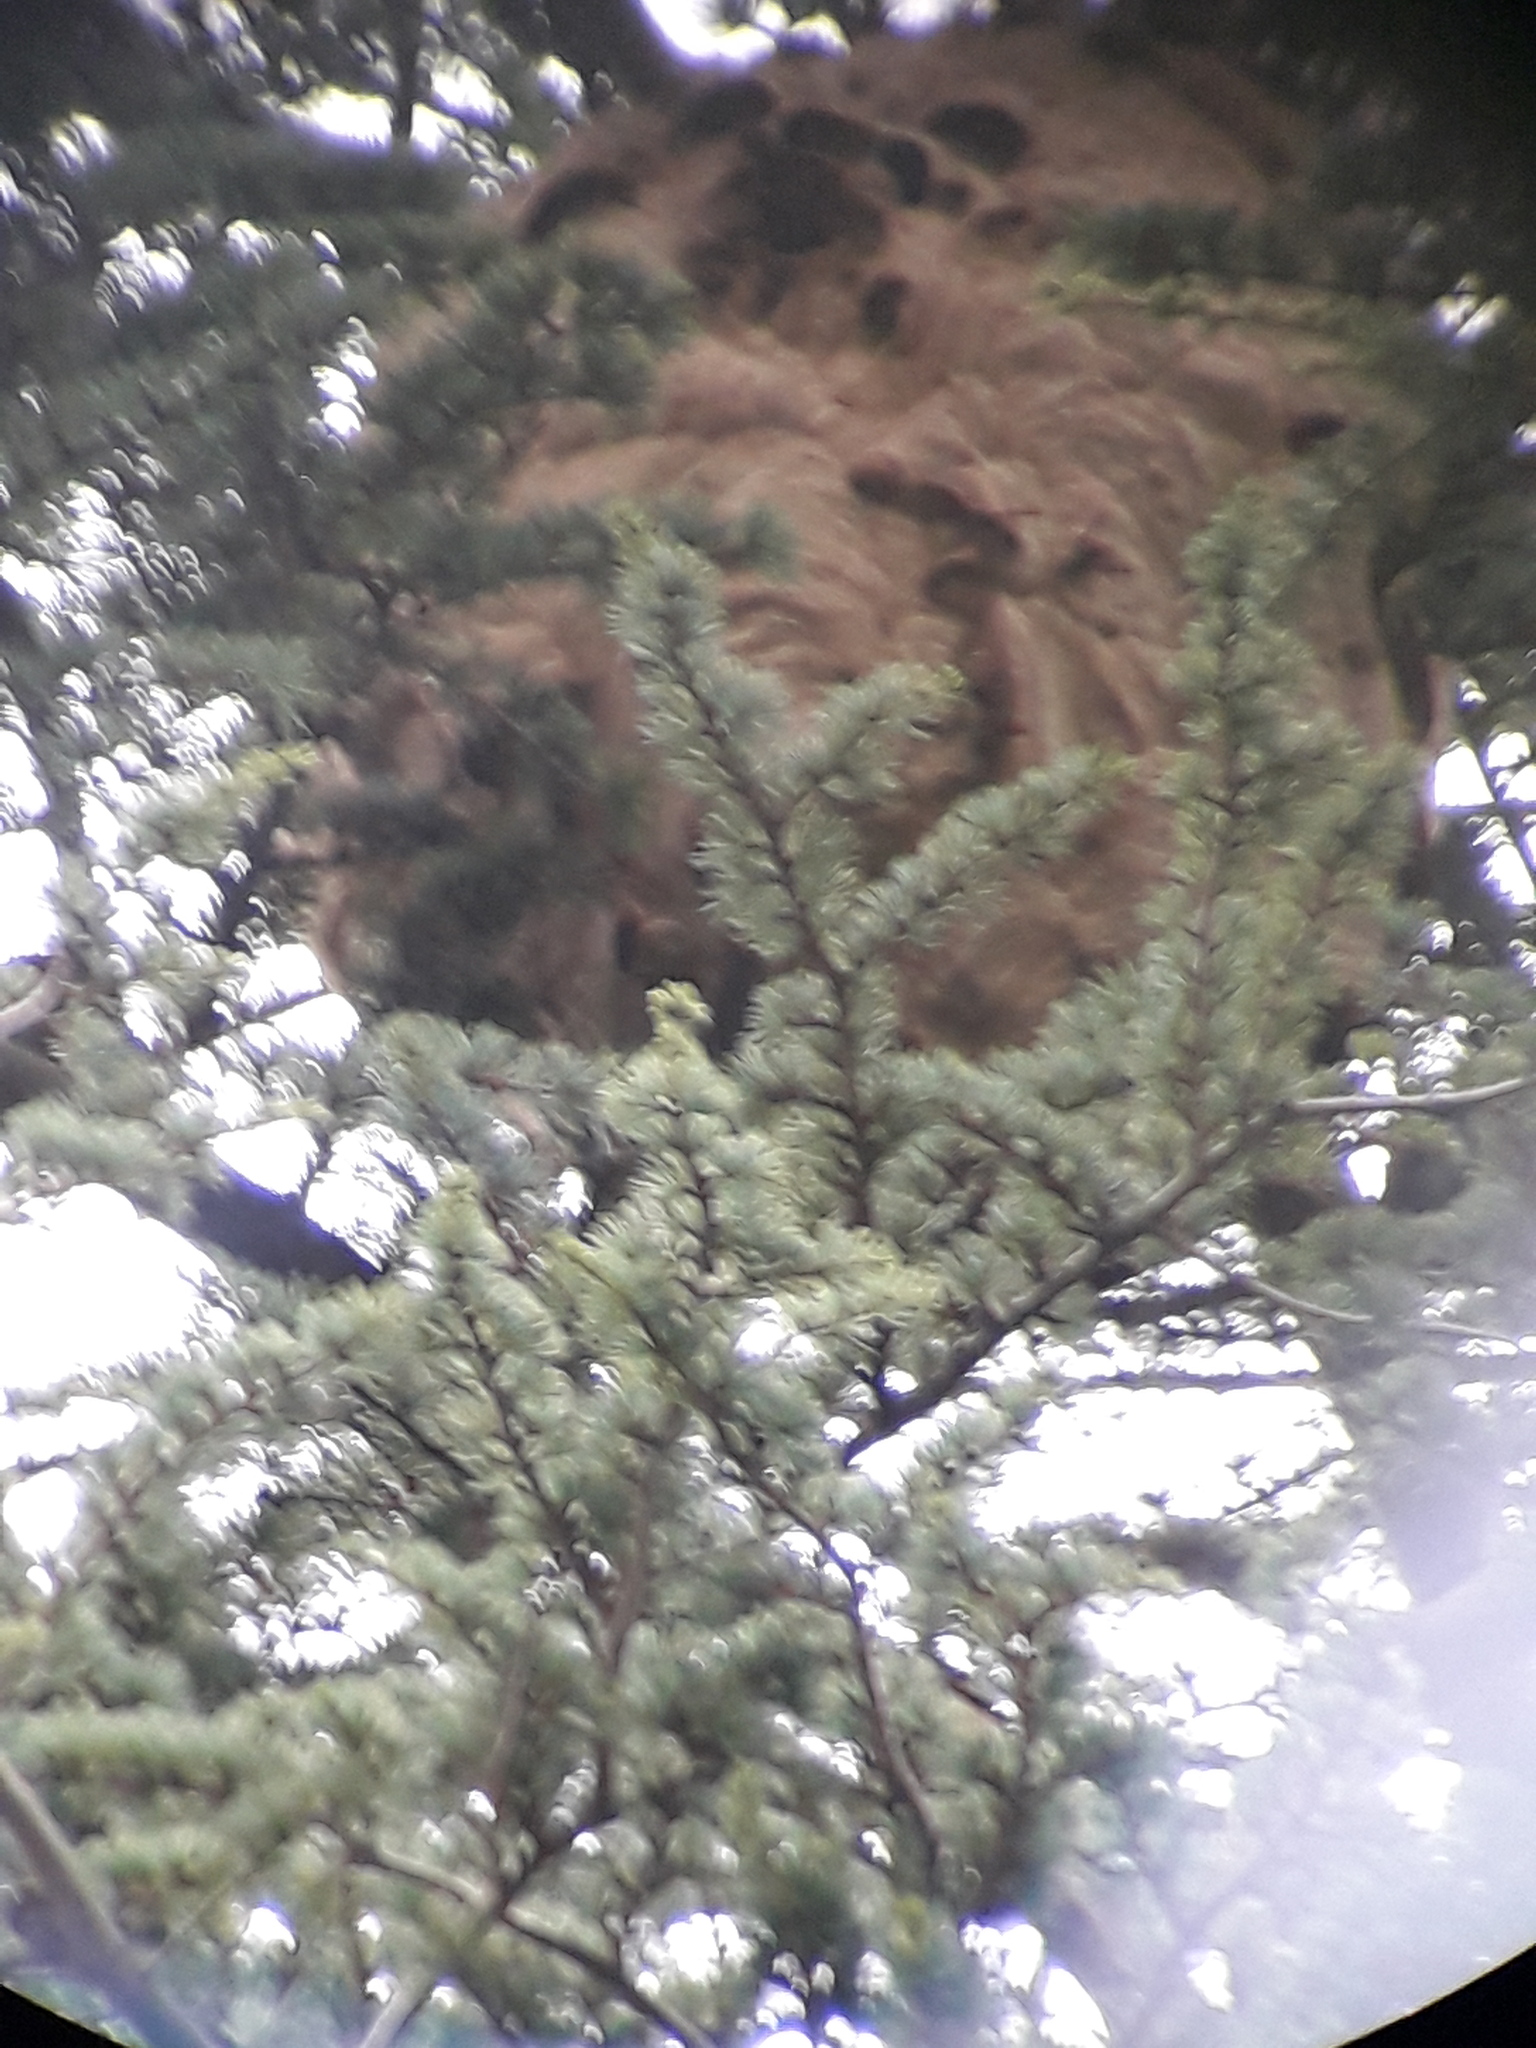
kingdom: Animalia
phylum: Arthropoda
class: Insecta
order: Hymenoptera
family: Vespidae
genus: Vespa
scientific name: Vespa velutina
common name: Asian hornet
